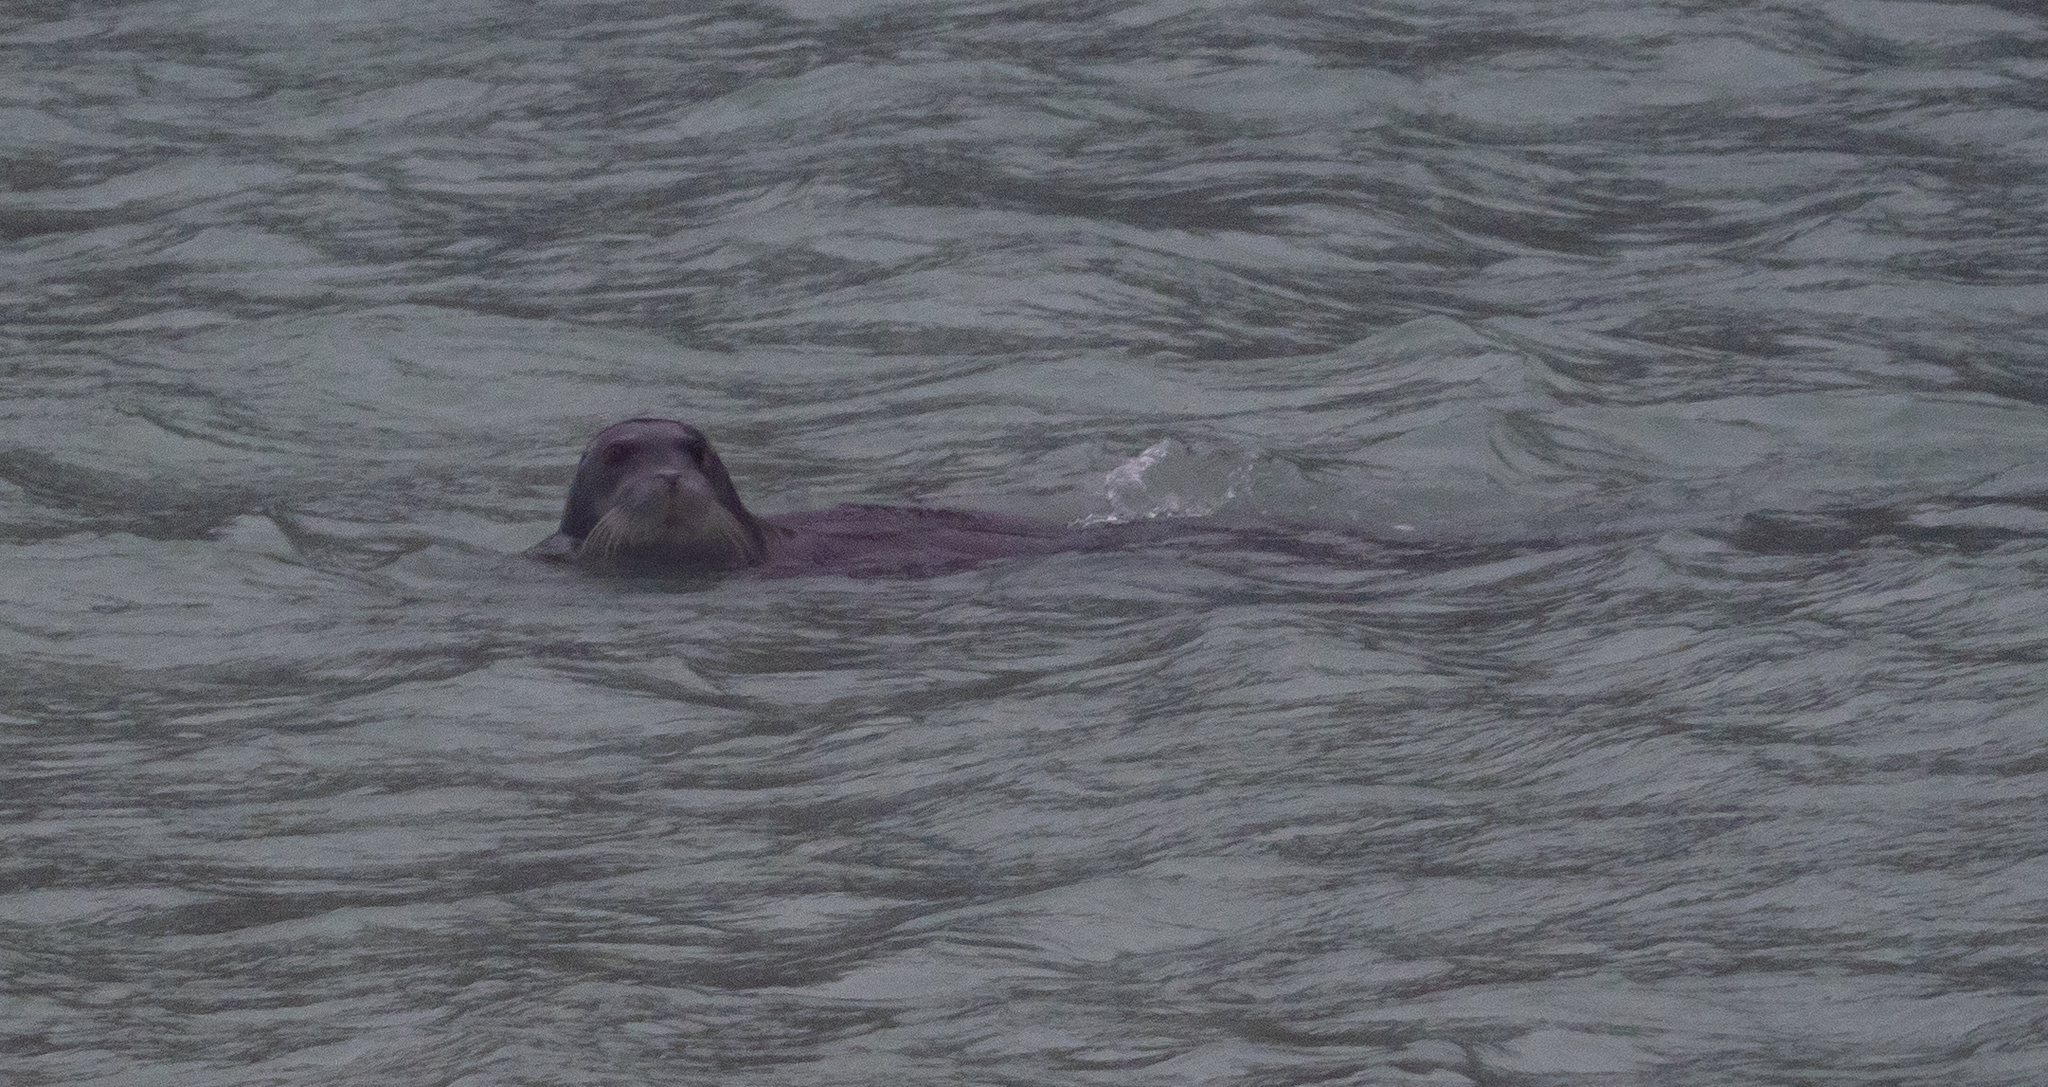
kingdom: Animalia
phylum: Chordata
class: Mammalia
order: Carnivora
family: Phocidae
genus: Erignathus
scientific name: Erignathus barbatus
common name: Bearded seal
